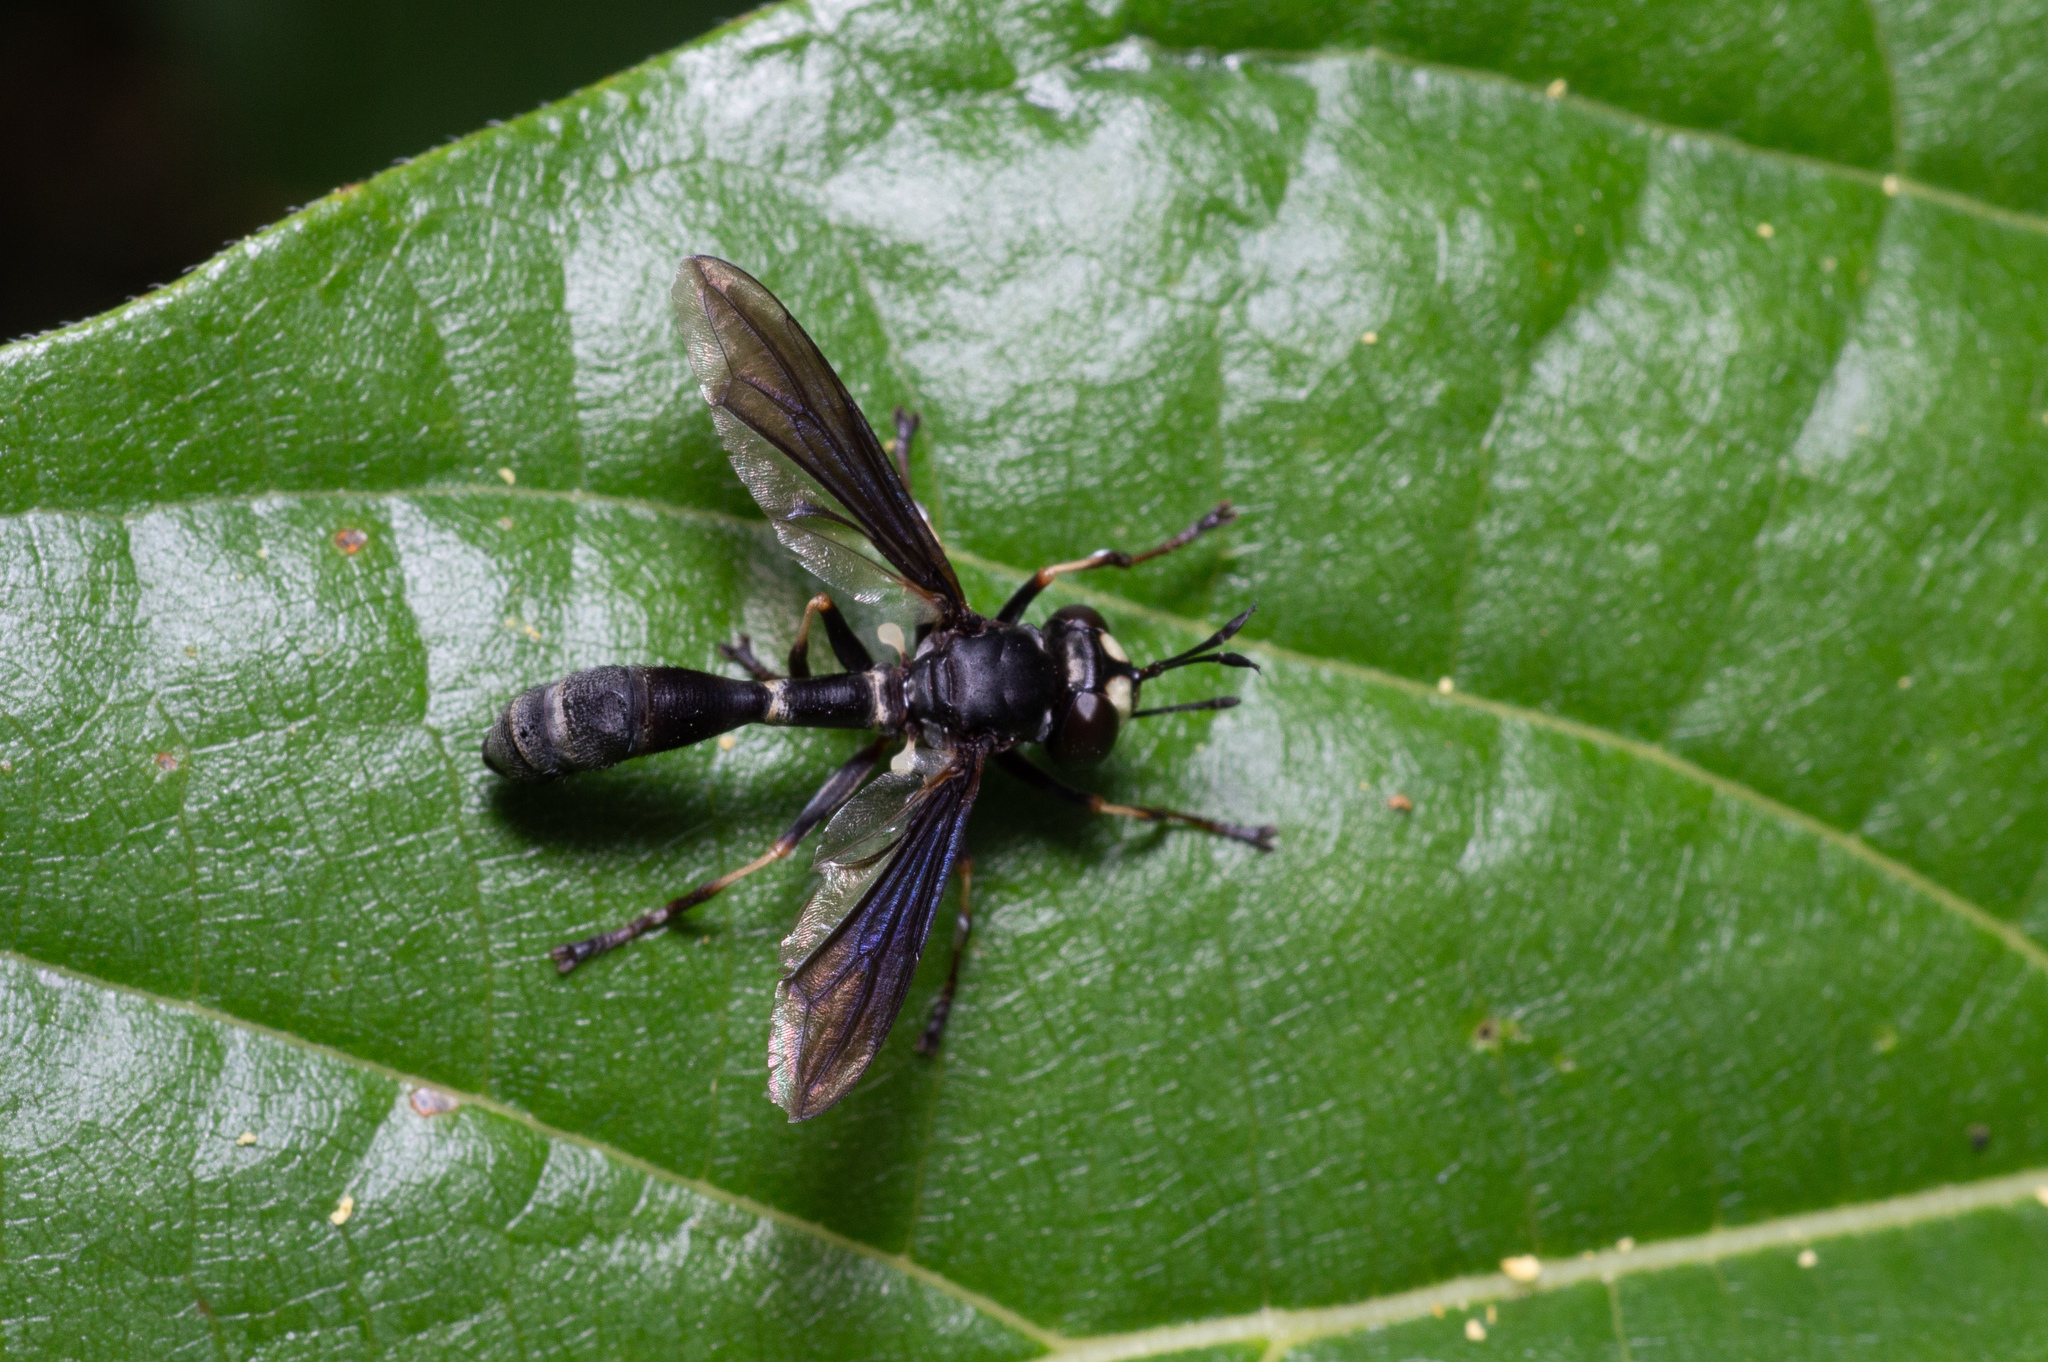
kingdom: Animalia
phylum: Arthropoda
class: Insecta
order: Diptera
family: Conopidae
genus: Physocephala
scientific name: Physocephala tibialis
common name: Common eastern physocephala
